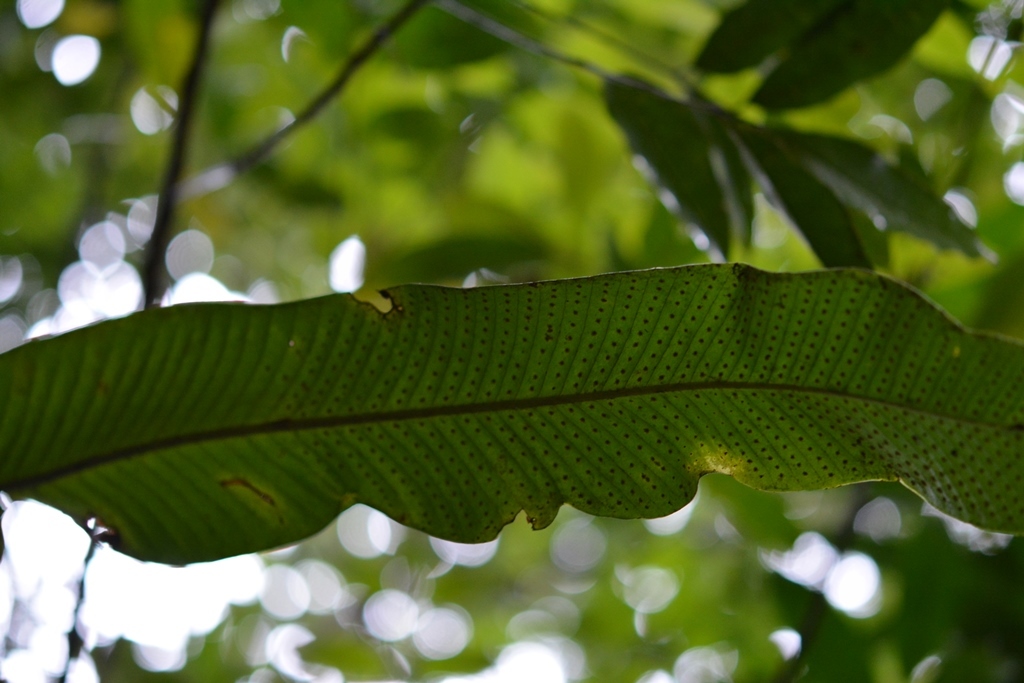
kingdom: Plantae
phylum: Tracheophyta
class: Polypodiopsida
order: Polypodiales
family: Polypodiaceae
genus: Niphidium
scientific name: Niphidium crassifolium
